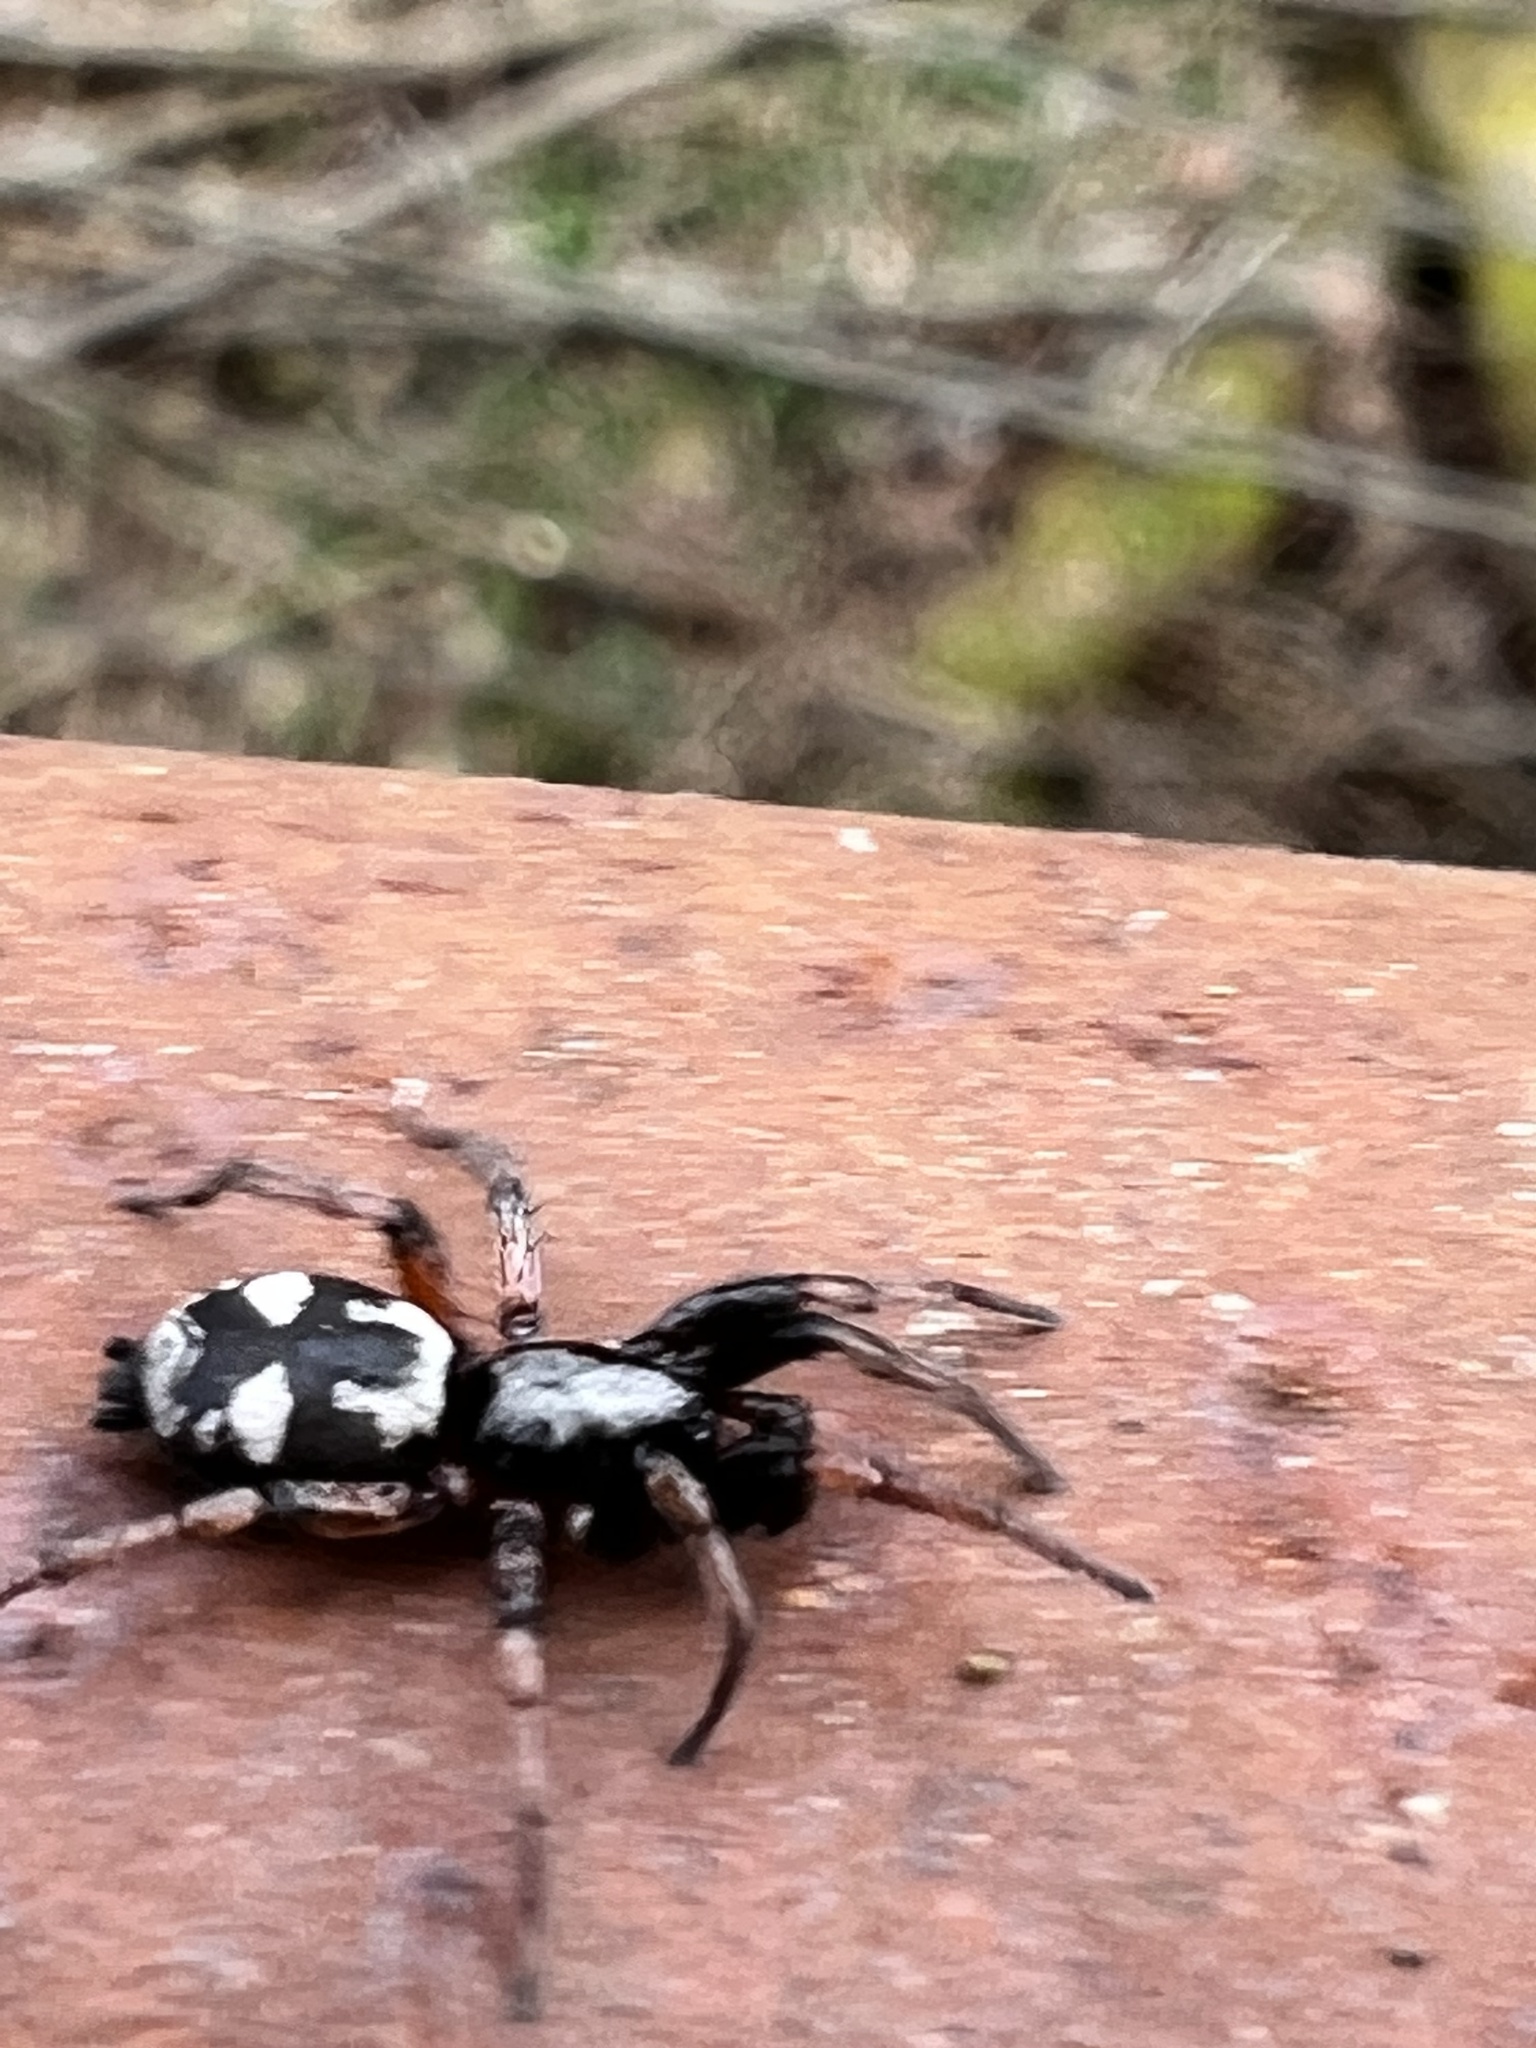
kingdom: Animalia
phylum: Arthropoda
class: Arachnida
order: Araneae
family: Gnaphosidae
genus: Sergiolus
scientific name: Sergiolus montanus
